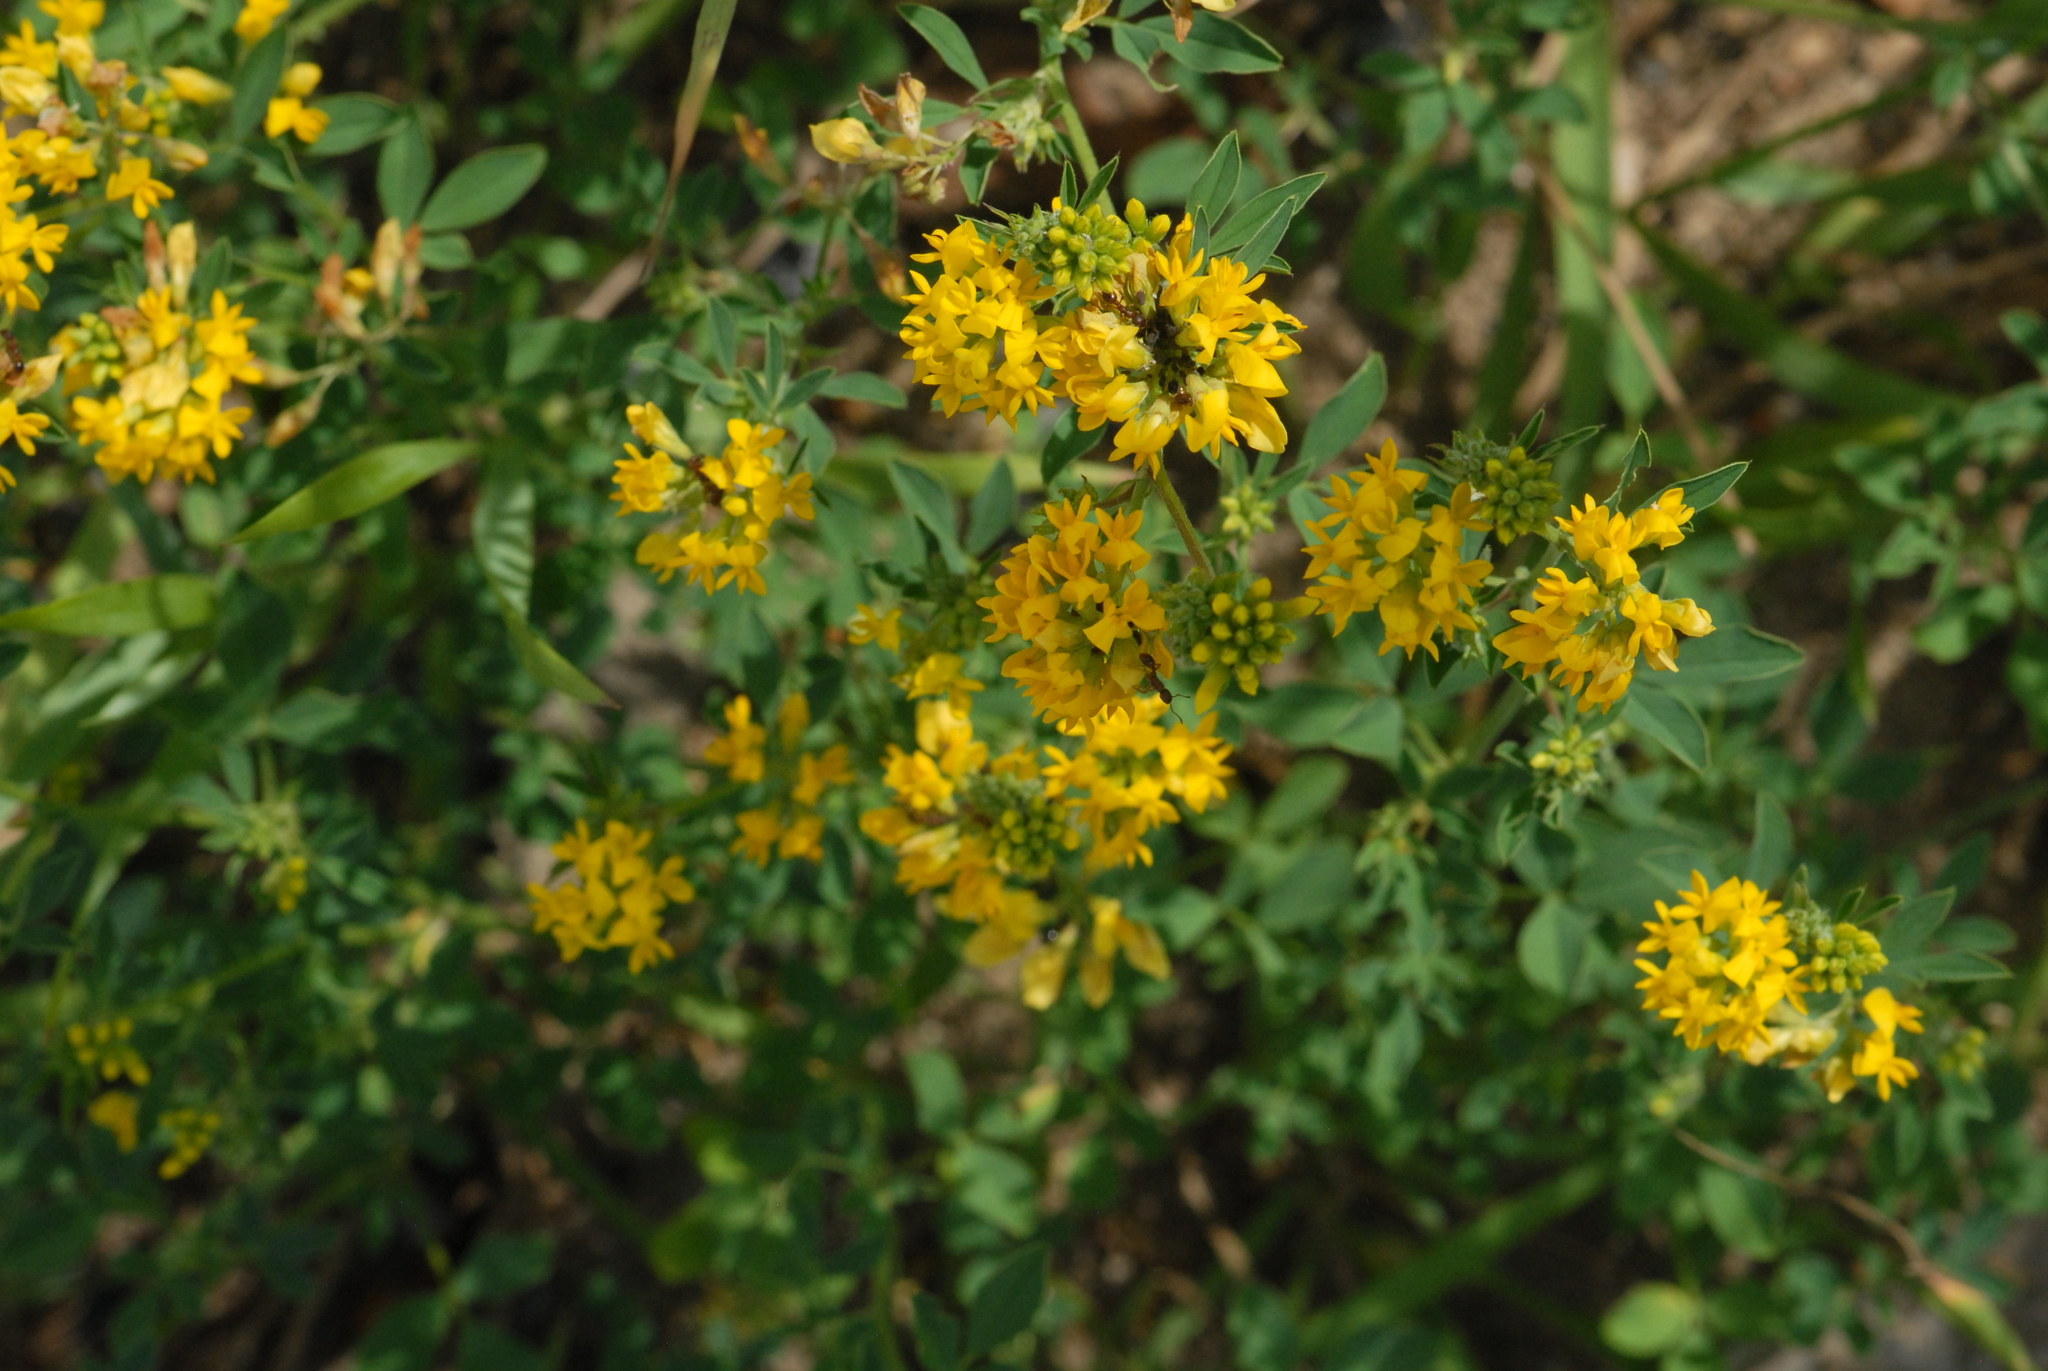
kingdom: Plantae
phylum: Tracheophyta
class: Magnoliopsida
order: Fabales
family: Fabaceae
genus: Medicago
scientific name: Medicago falcata
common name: Sickle medick
